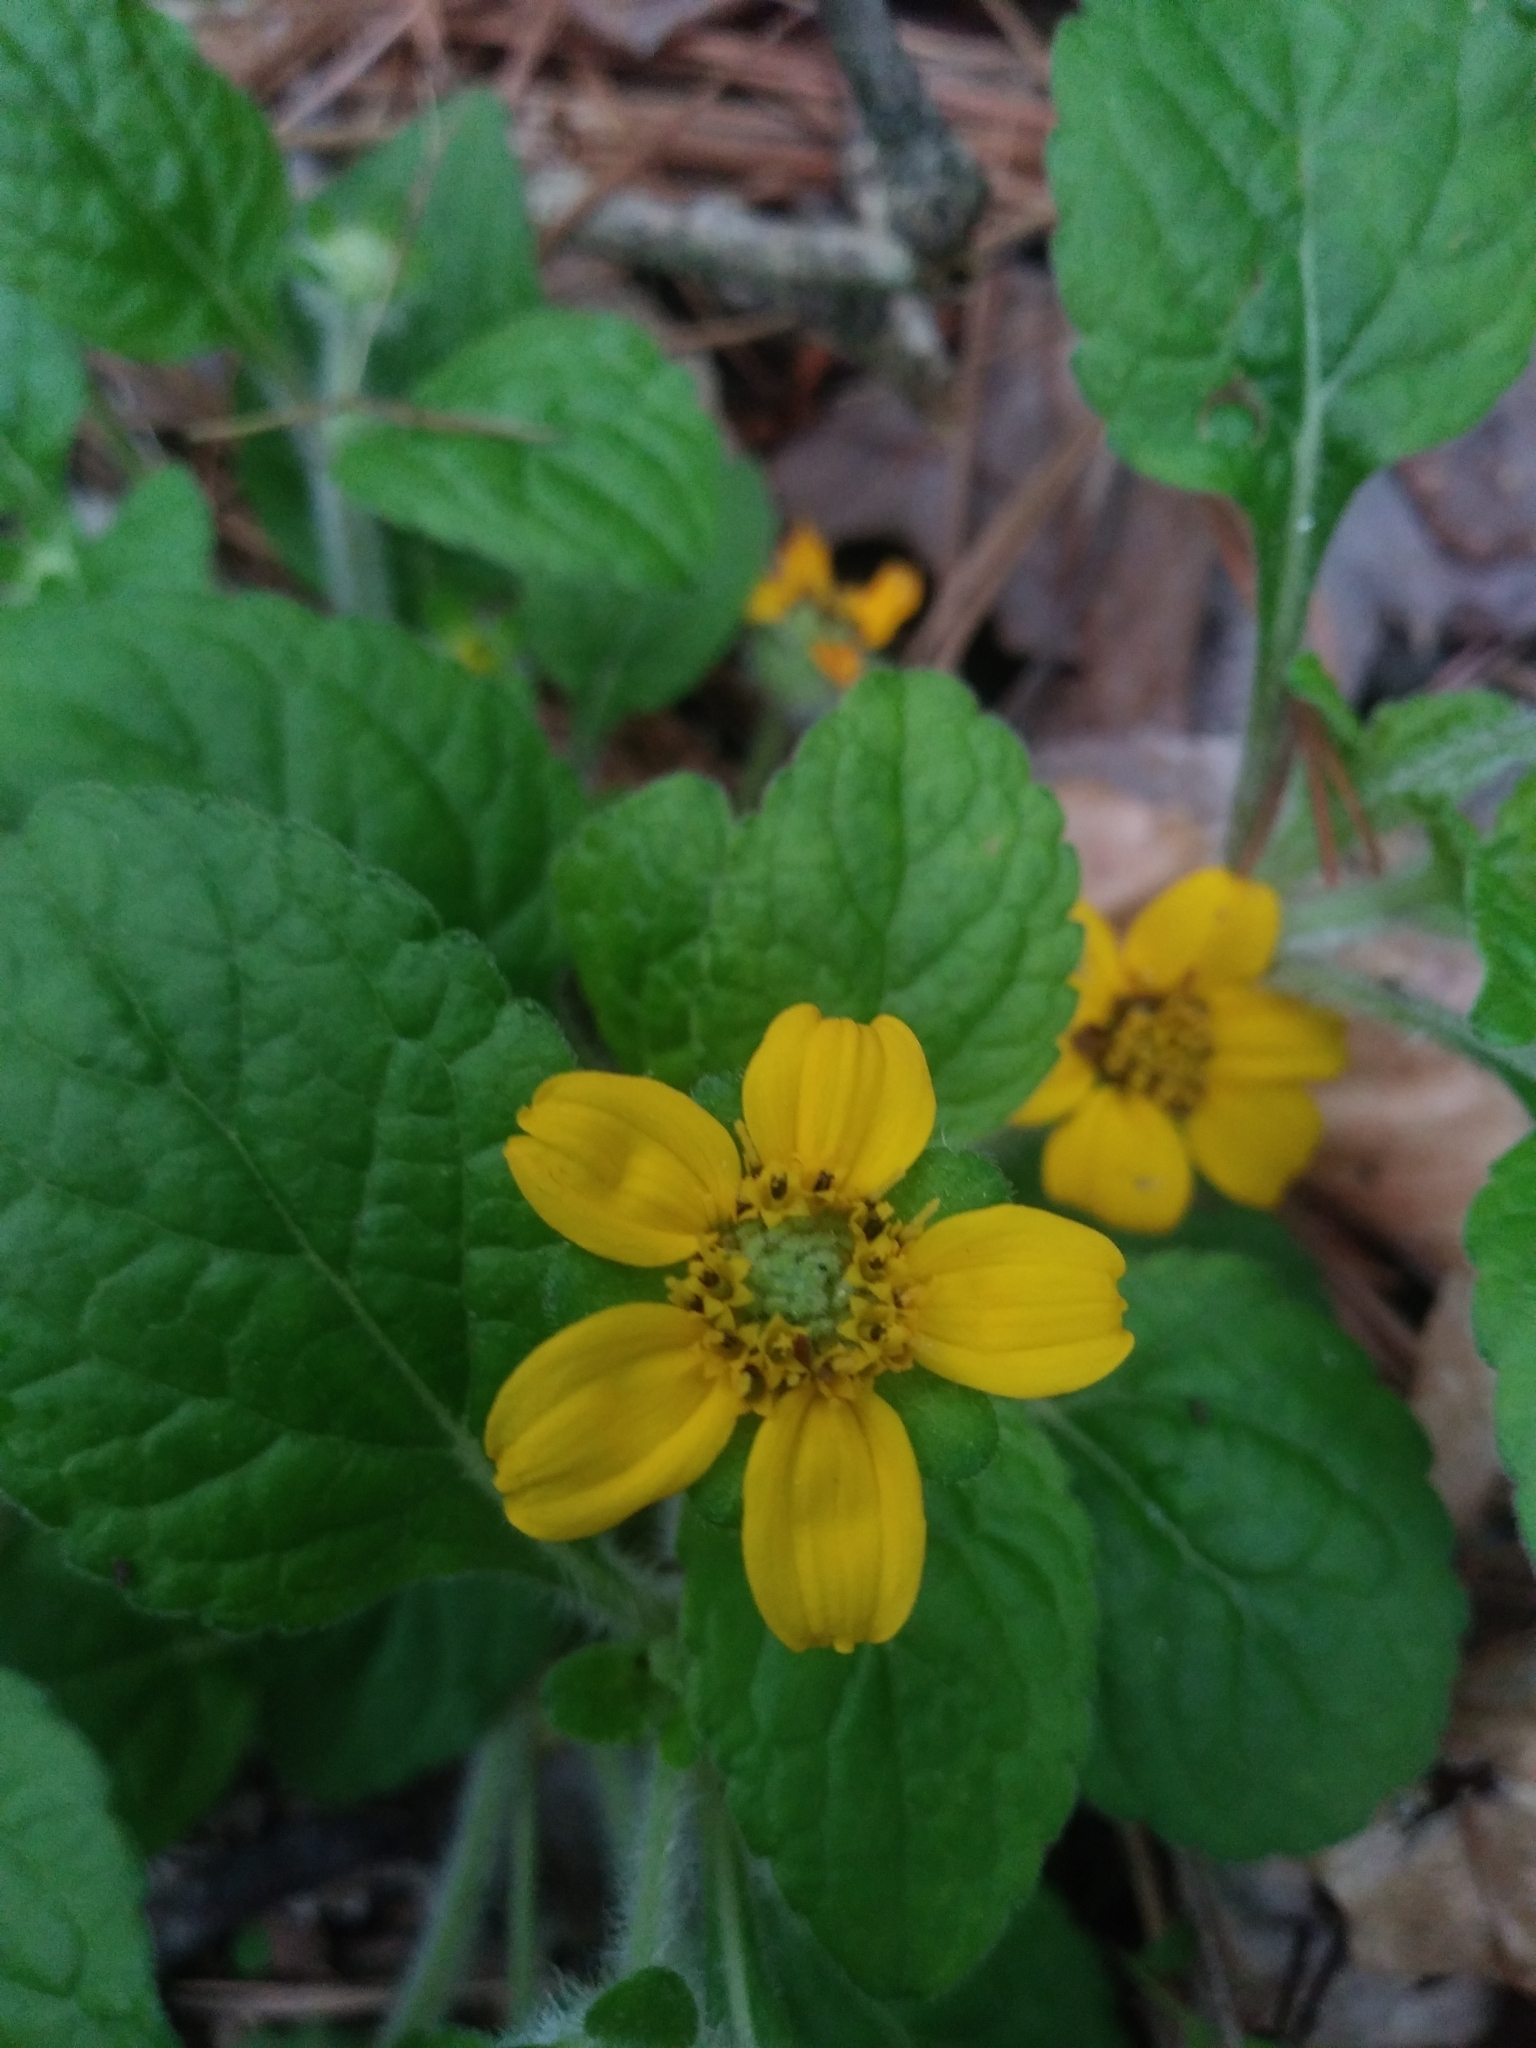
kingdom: Plantae
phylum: Tracheophyta
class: Magnoliopsida
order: Asterales
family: Asteraceae
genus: Chrysogonum
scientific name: Chrysogonum virginianum
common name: Golden-knee
